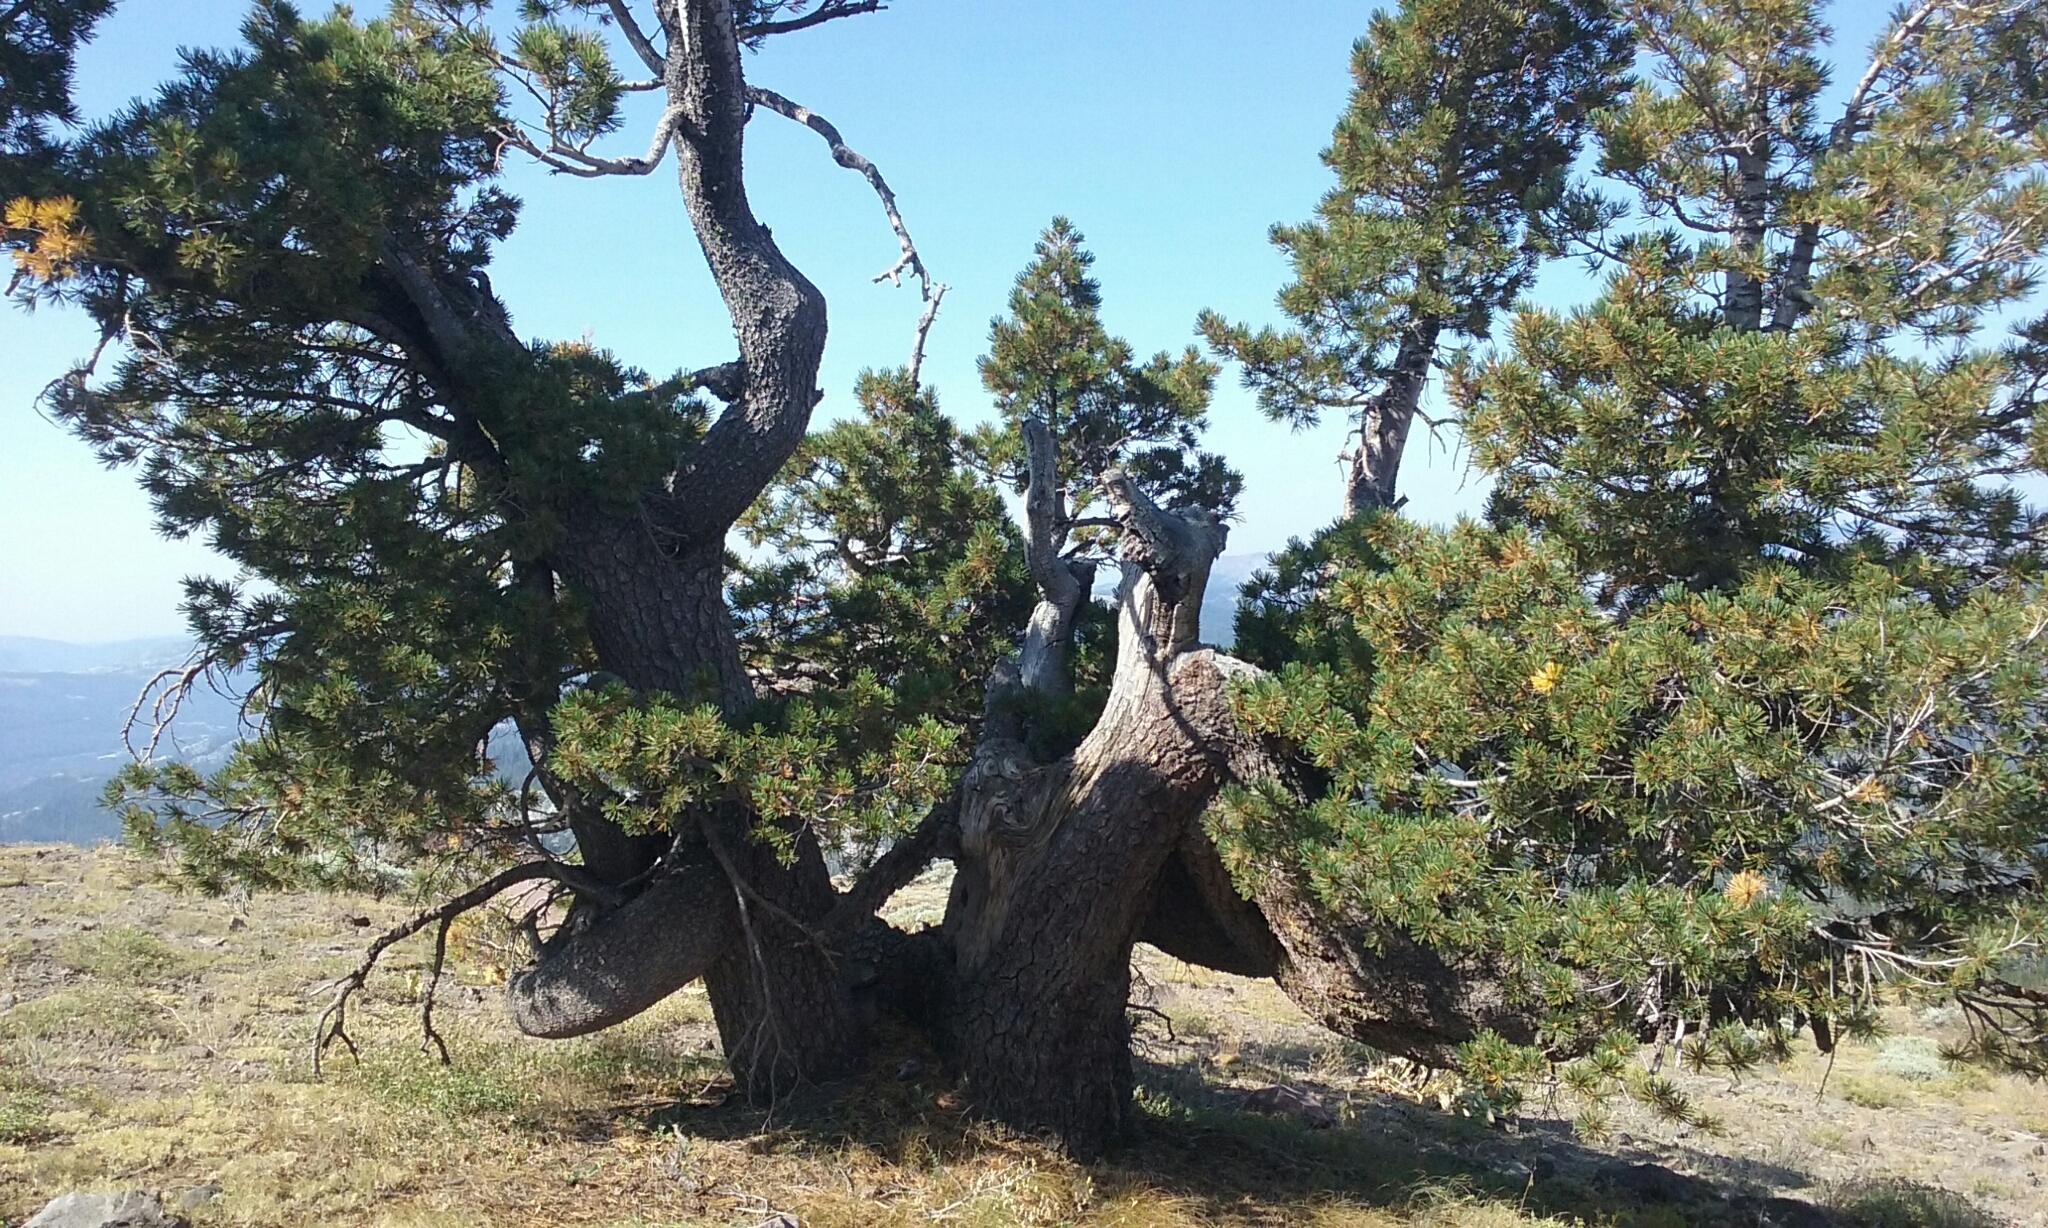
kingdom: Plantae
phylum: Tracheophyta
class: Pinopsida
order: Pinales
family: Pinaceae
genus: Pinus
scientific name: Pinus monticola
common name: Western white pine
